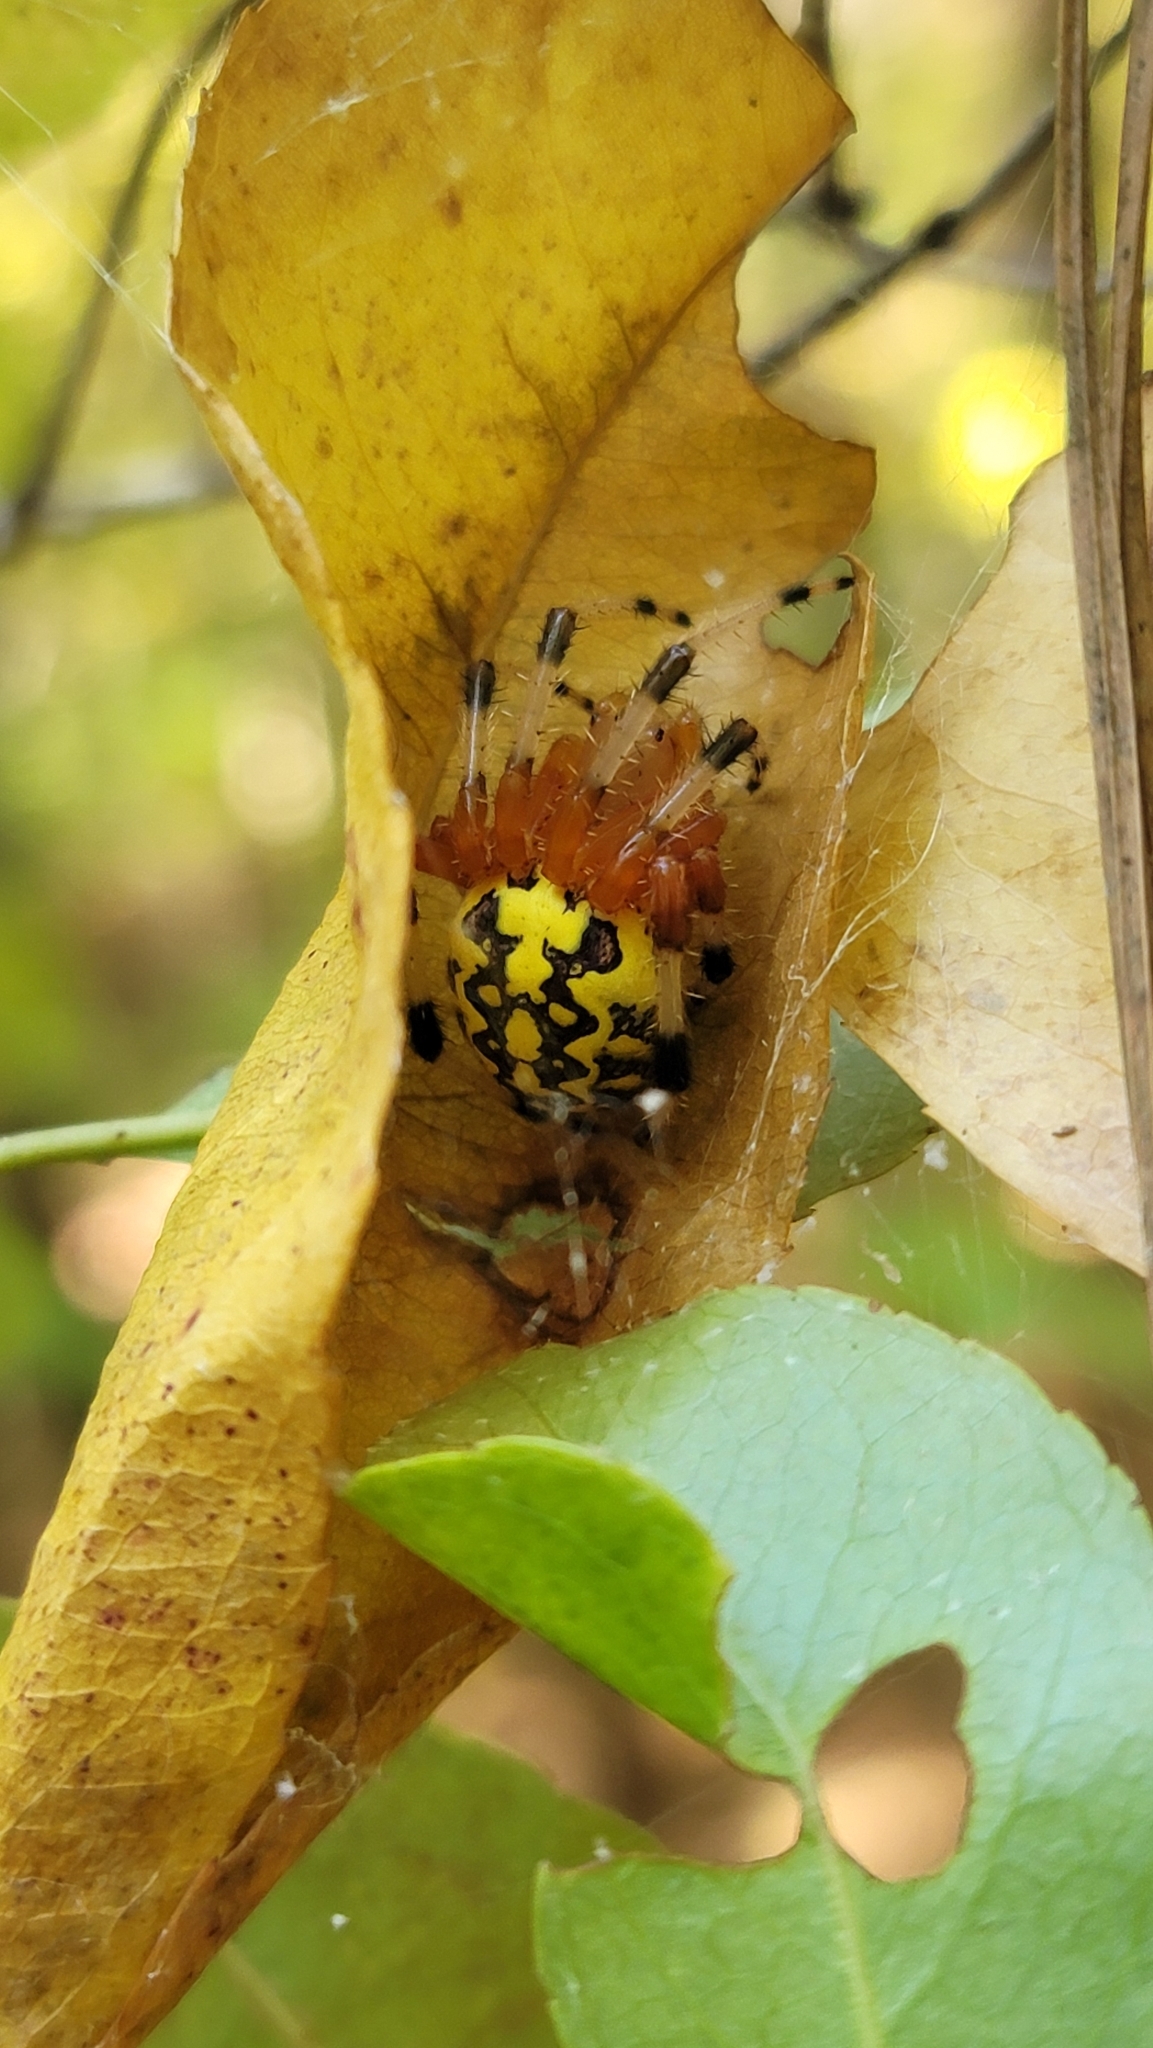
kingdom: Animalia
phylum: Arthropoda
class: Arachnida
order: Araneae
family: Araneidae
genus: Araneus
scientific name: Araneus marmoreus
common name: Marbled orbweaver
